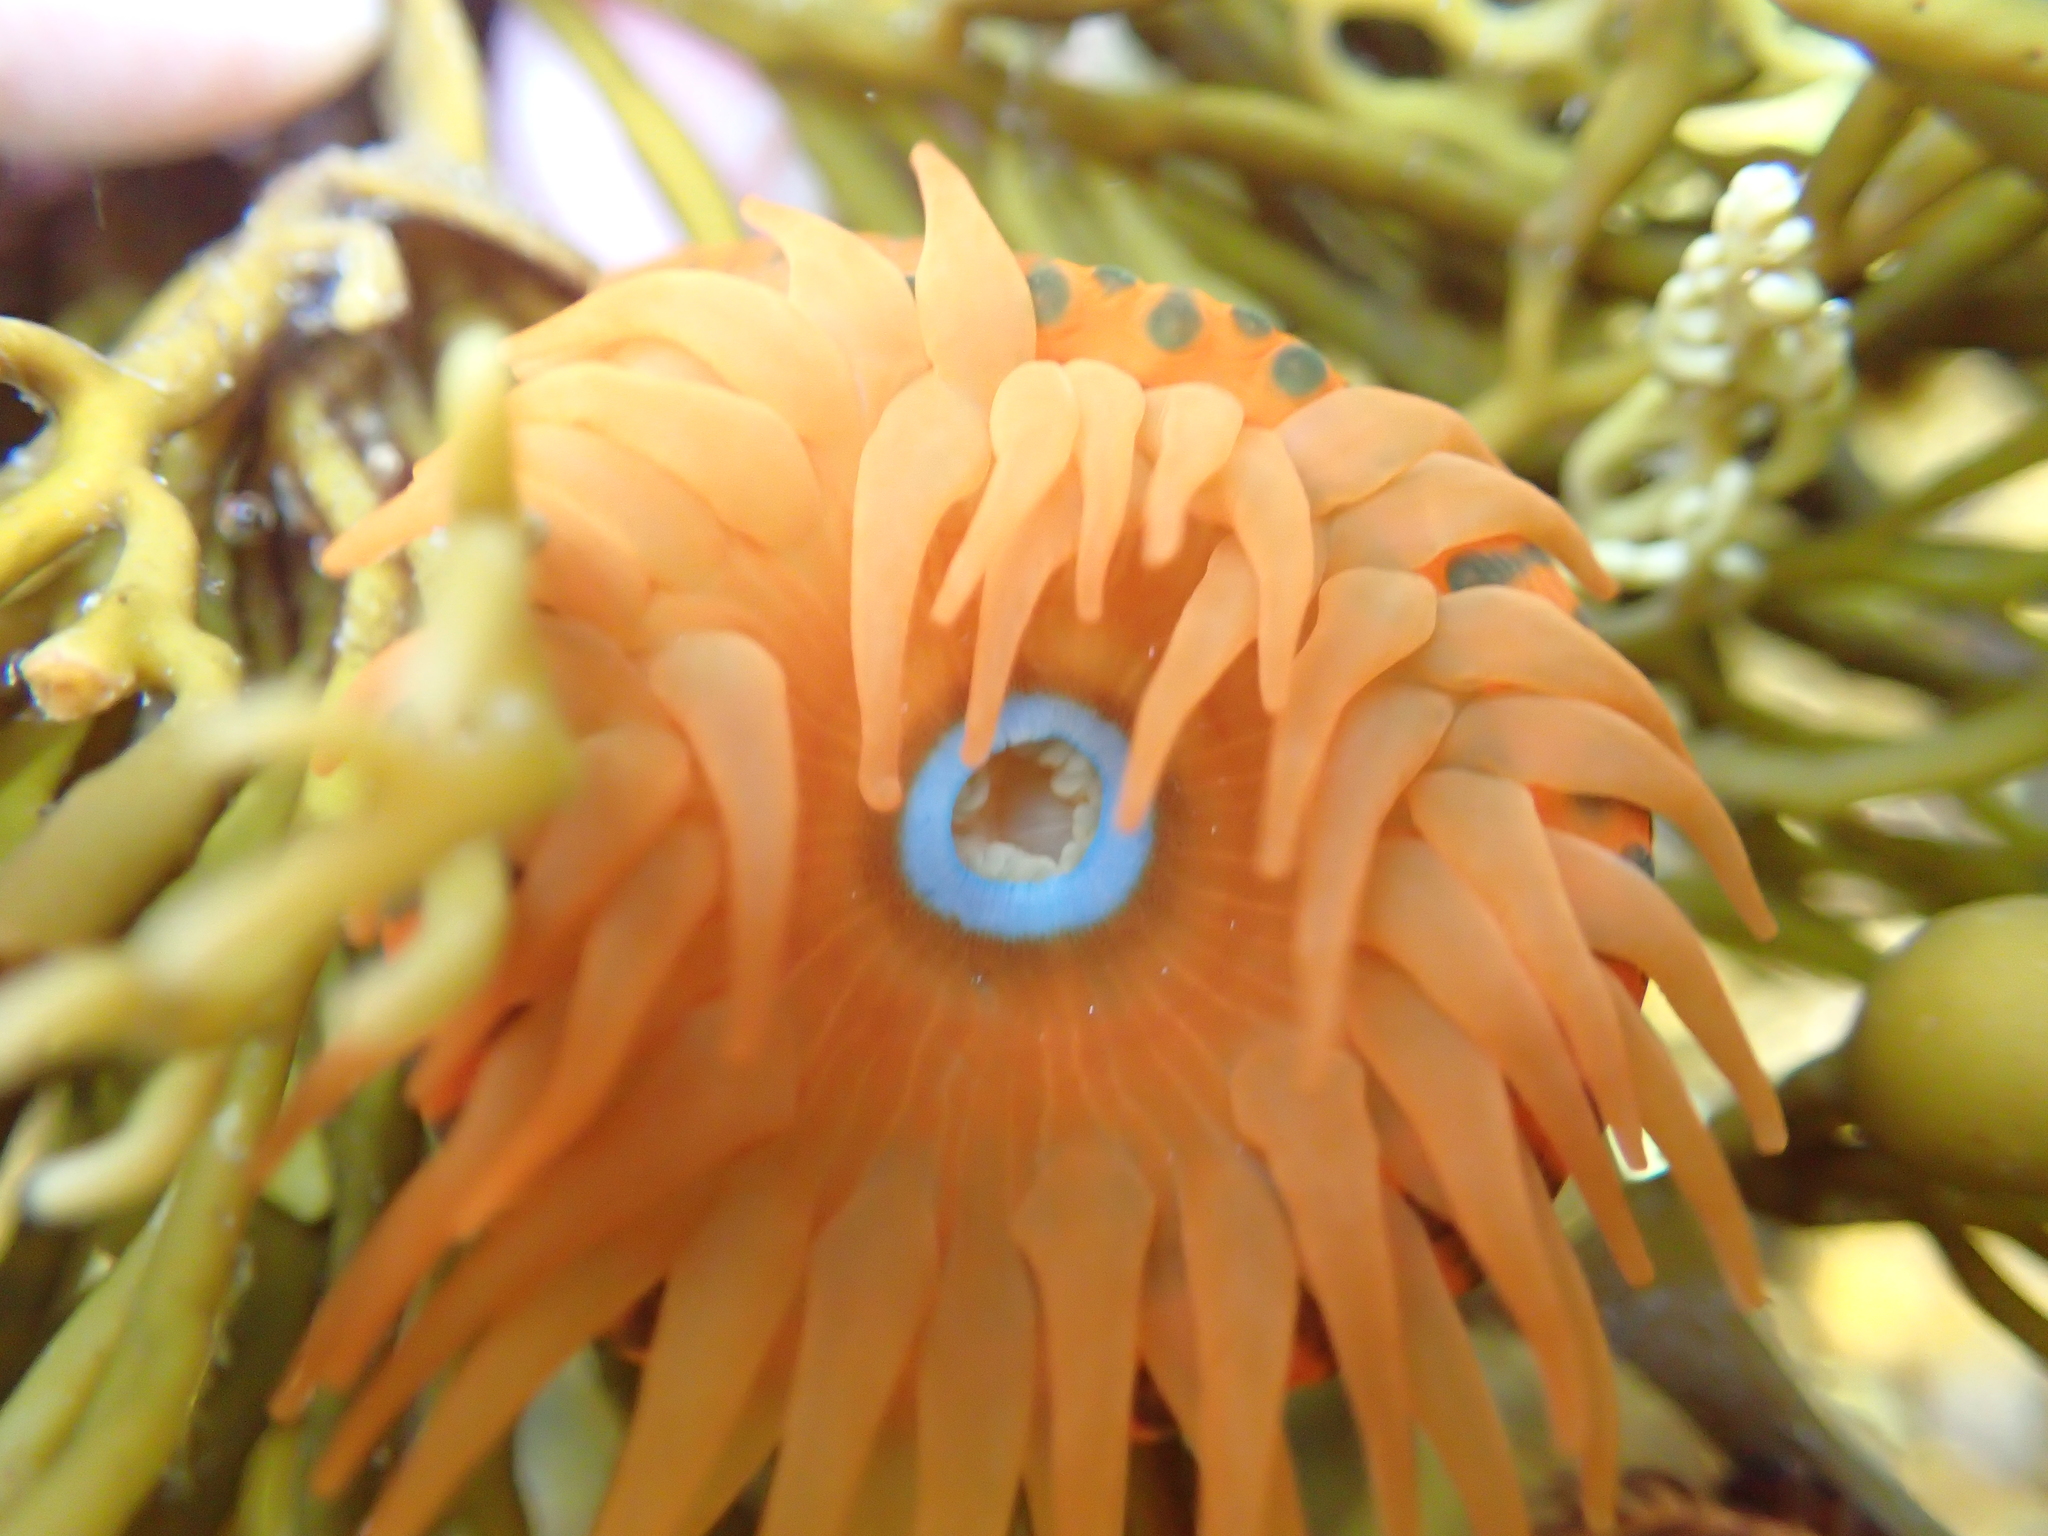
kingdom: Animalia
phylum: Cnidaria
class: Anthozoa
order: Actiniaria
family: Actiniidae
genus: Epiactis
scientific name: Epiactis
